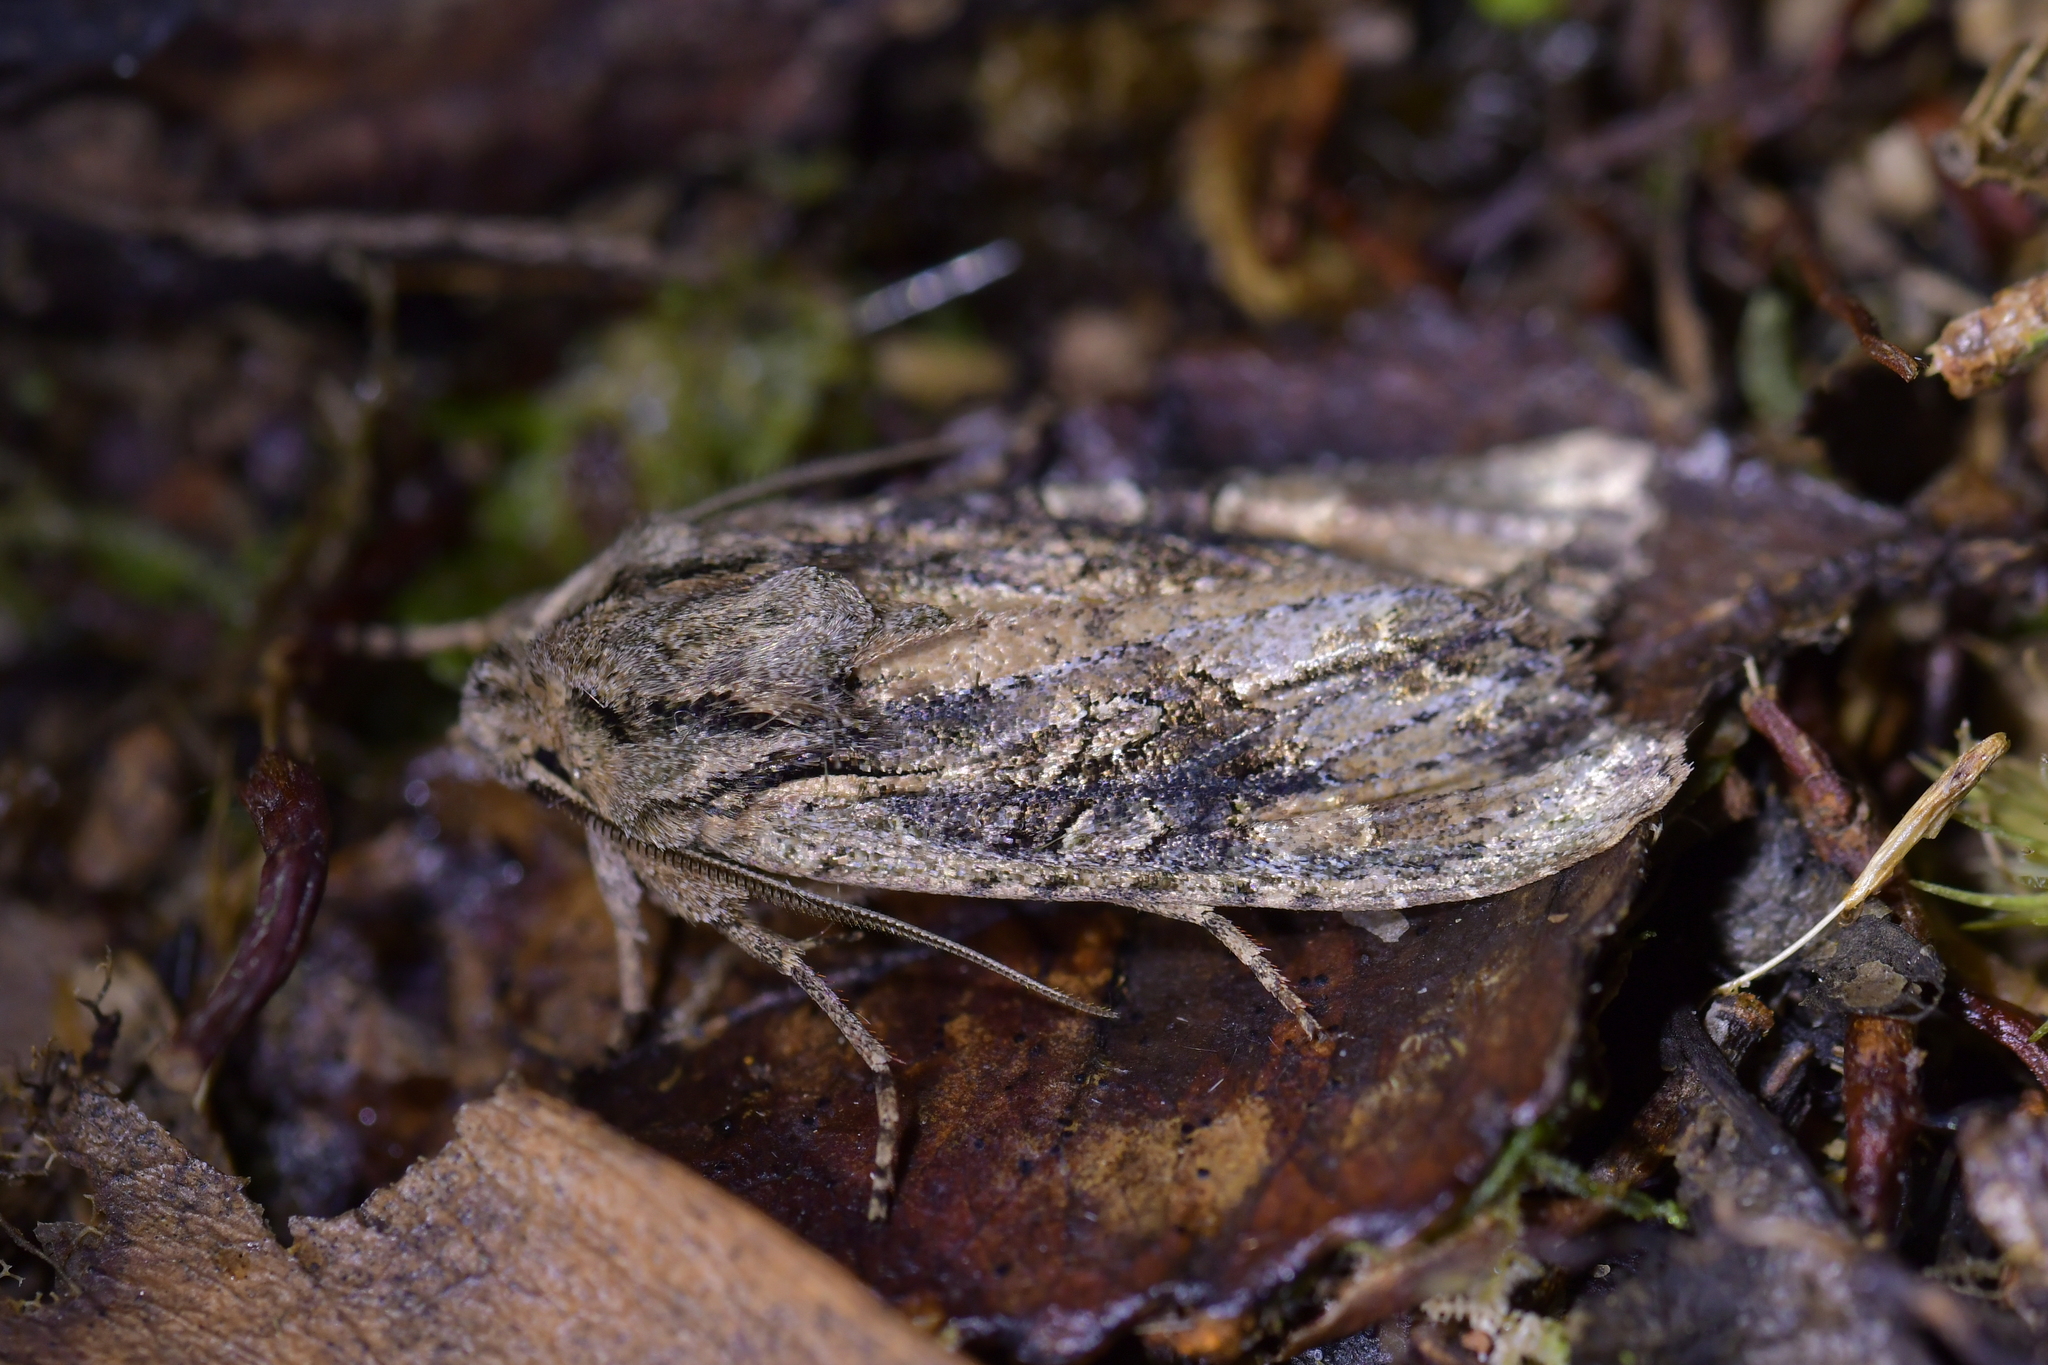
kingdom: Animalia
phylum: Arthropoda
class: Insecta
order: Lepidoptera
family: Noctuidae
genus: Ichneutica
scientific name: Ichneutica mutans
